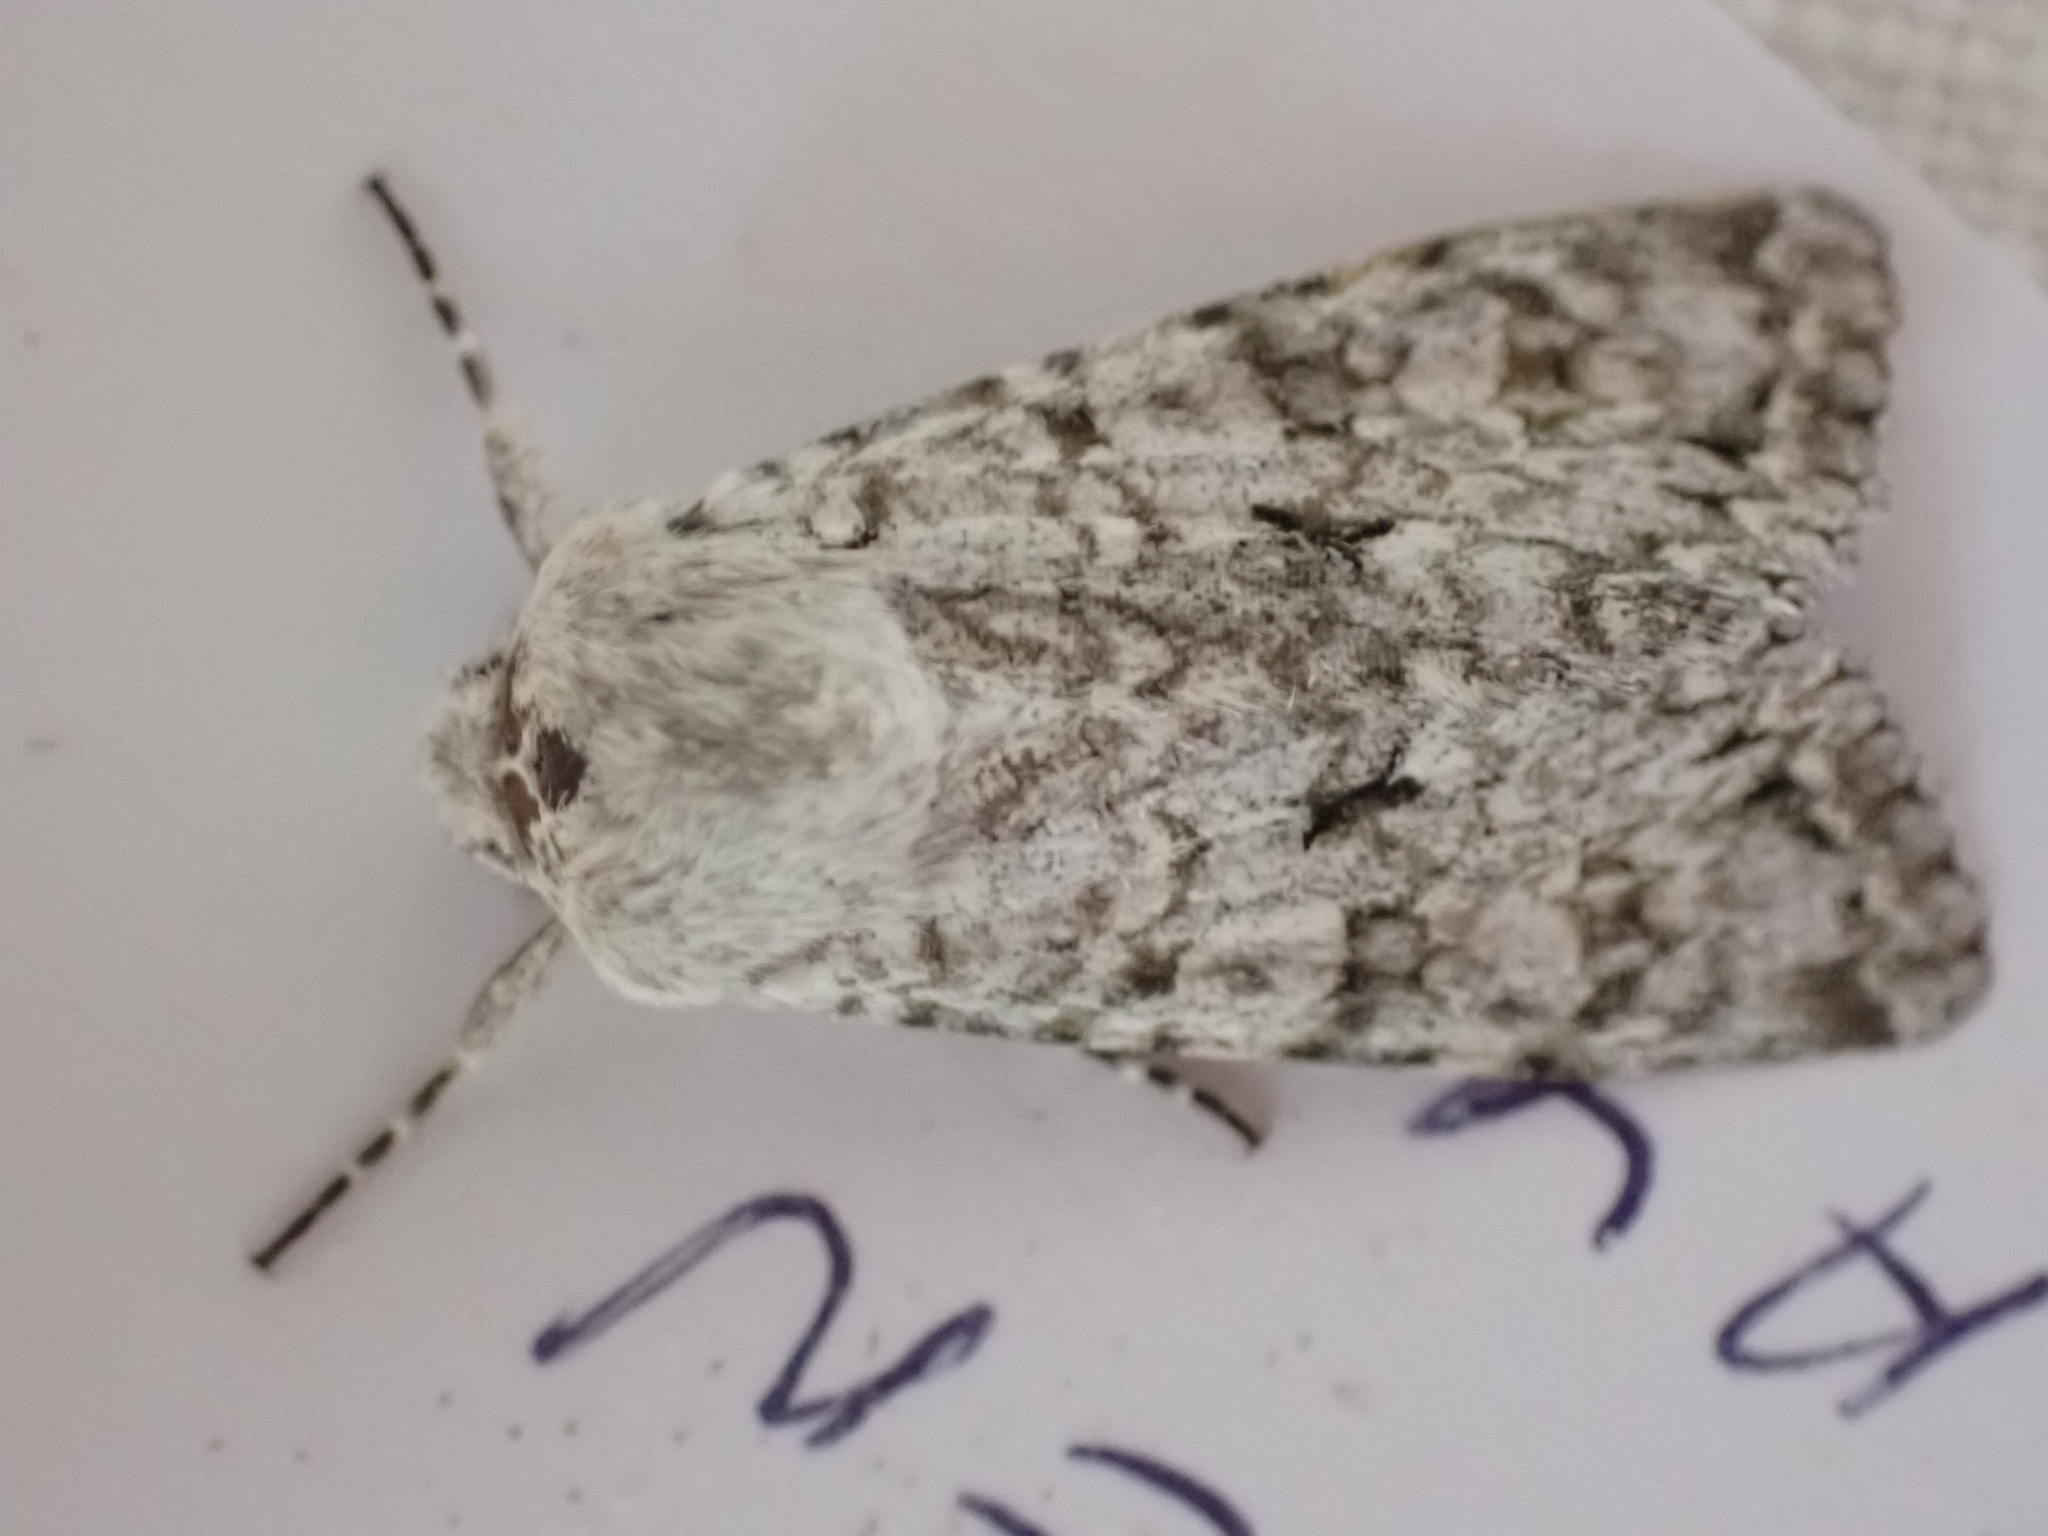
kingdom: Animalia
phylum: Arthropoda
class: Insecta
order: Lepidoptera
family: Noctuidae
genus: Antitype
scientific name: Antitype chi
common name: Grey chi
